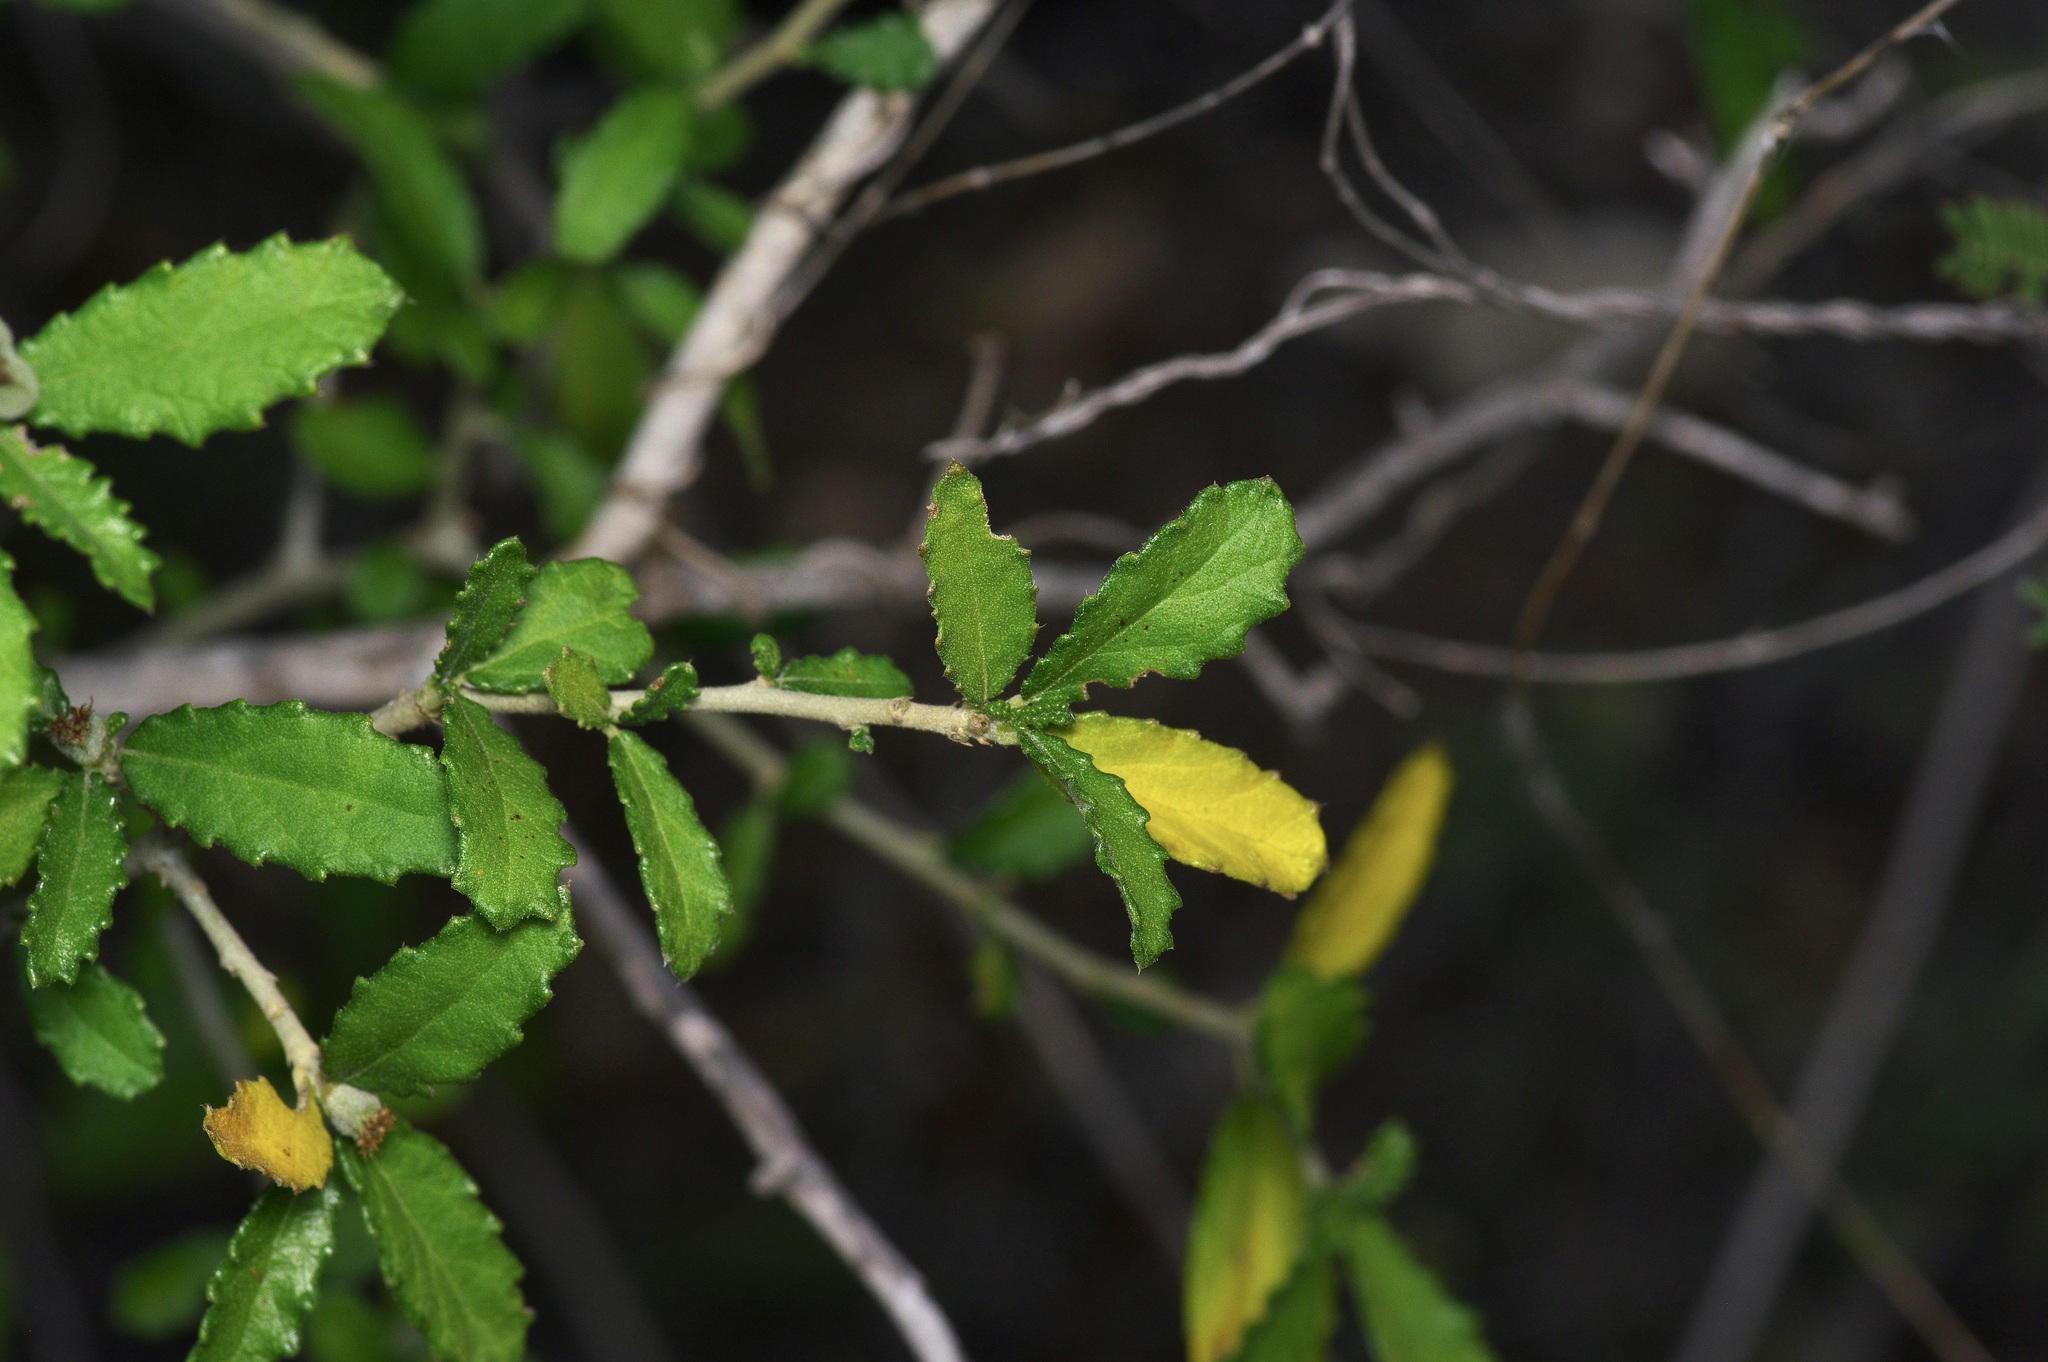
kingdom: Plantae
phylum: Tracheophyta
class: Magnoliopsida
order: Malpighiales
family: Euphorbiaceae
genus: Bernardia
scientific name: Bernardia myricifolia
